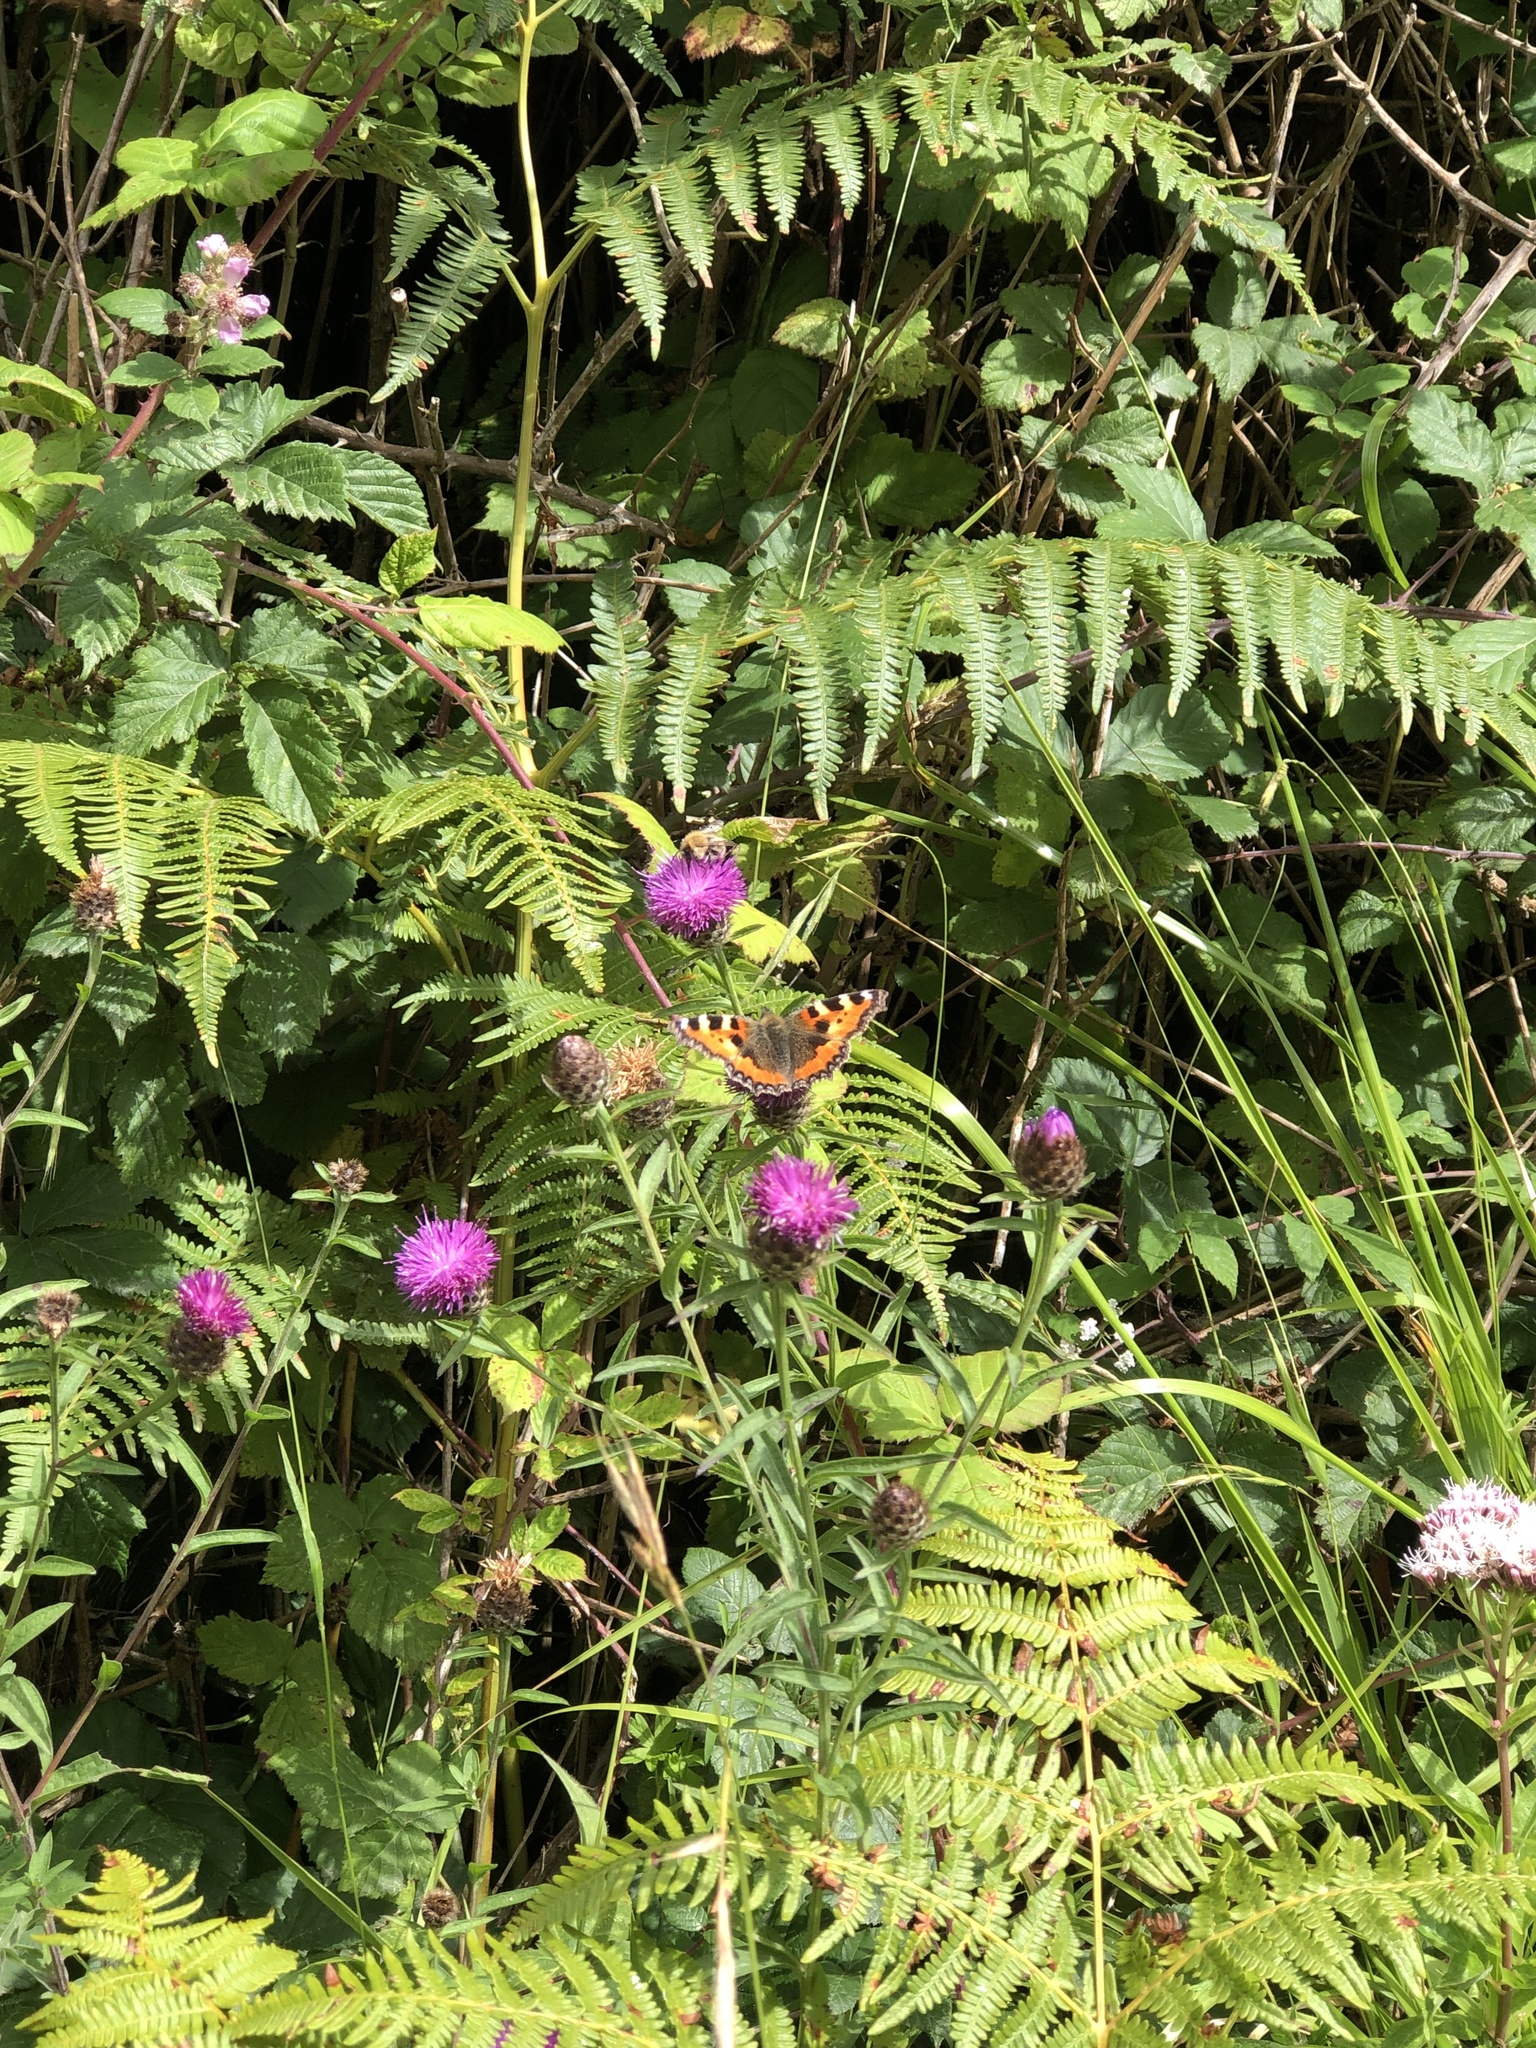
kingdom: Animalia
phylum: Arthropoda
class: Insecta
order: Lepidoptera
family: Nymphalidae
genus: Aglais
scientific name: Aglais urticae
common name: Small tortoiseshell
